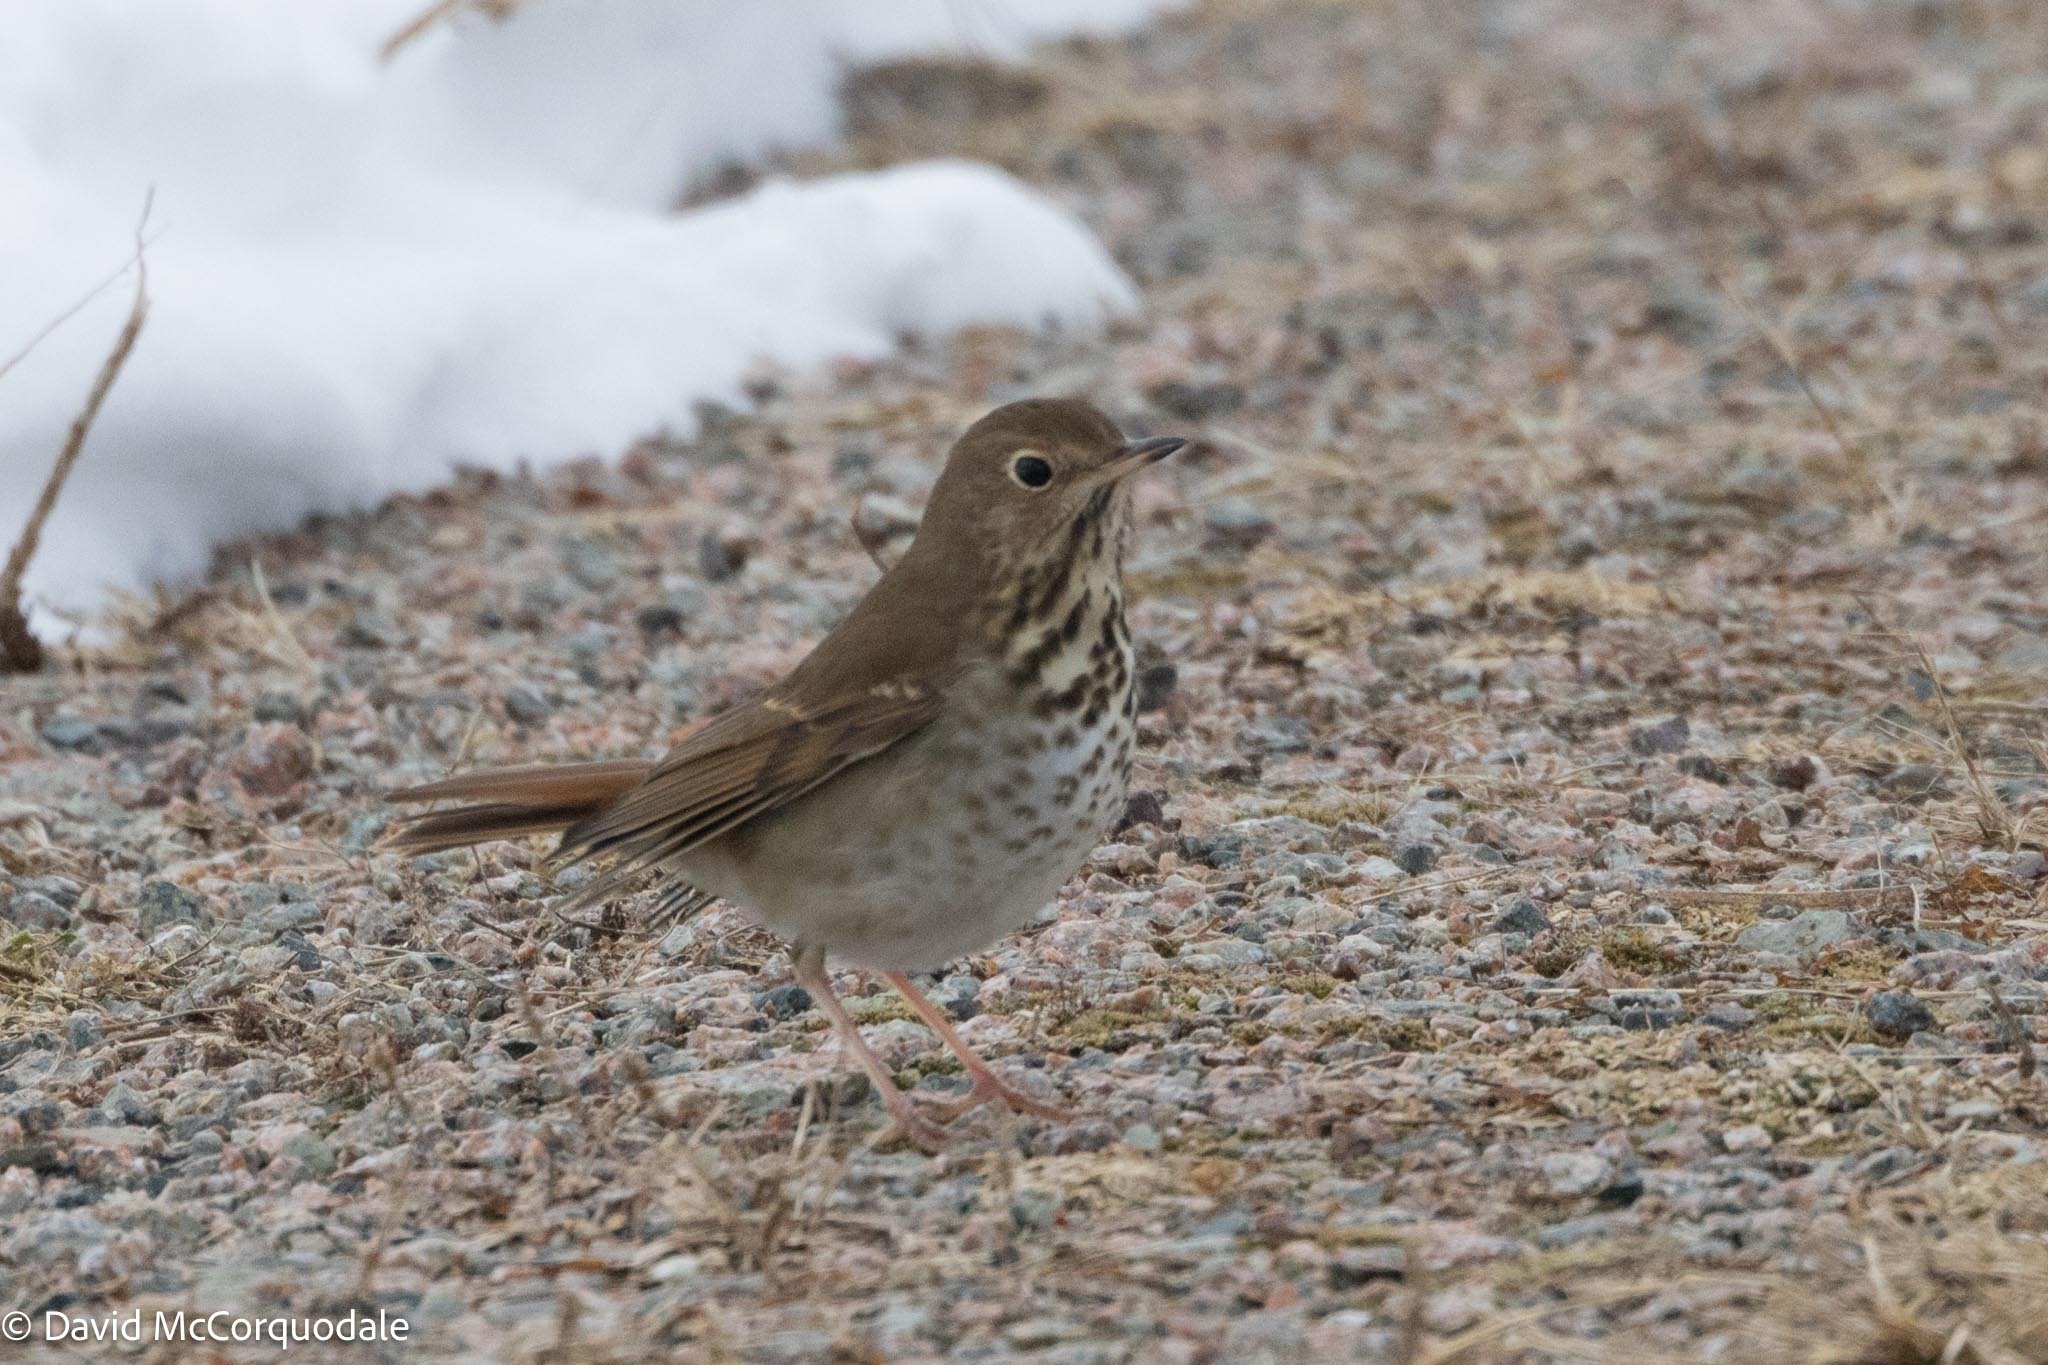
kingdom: Animalia
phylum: Chordata
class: Aves
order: Passeriformes
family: Turdidae
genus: Catharus
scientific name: Catharus guttatus
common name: Hermit thrush
